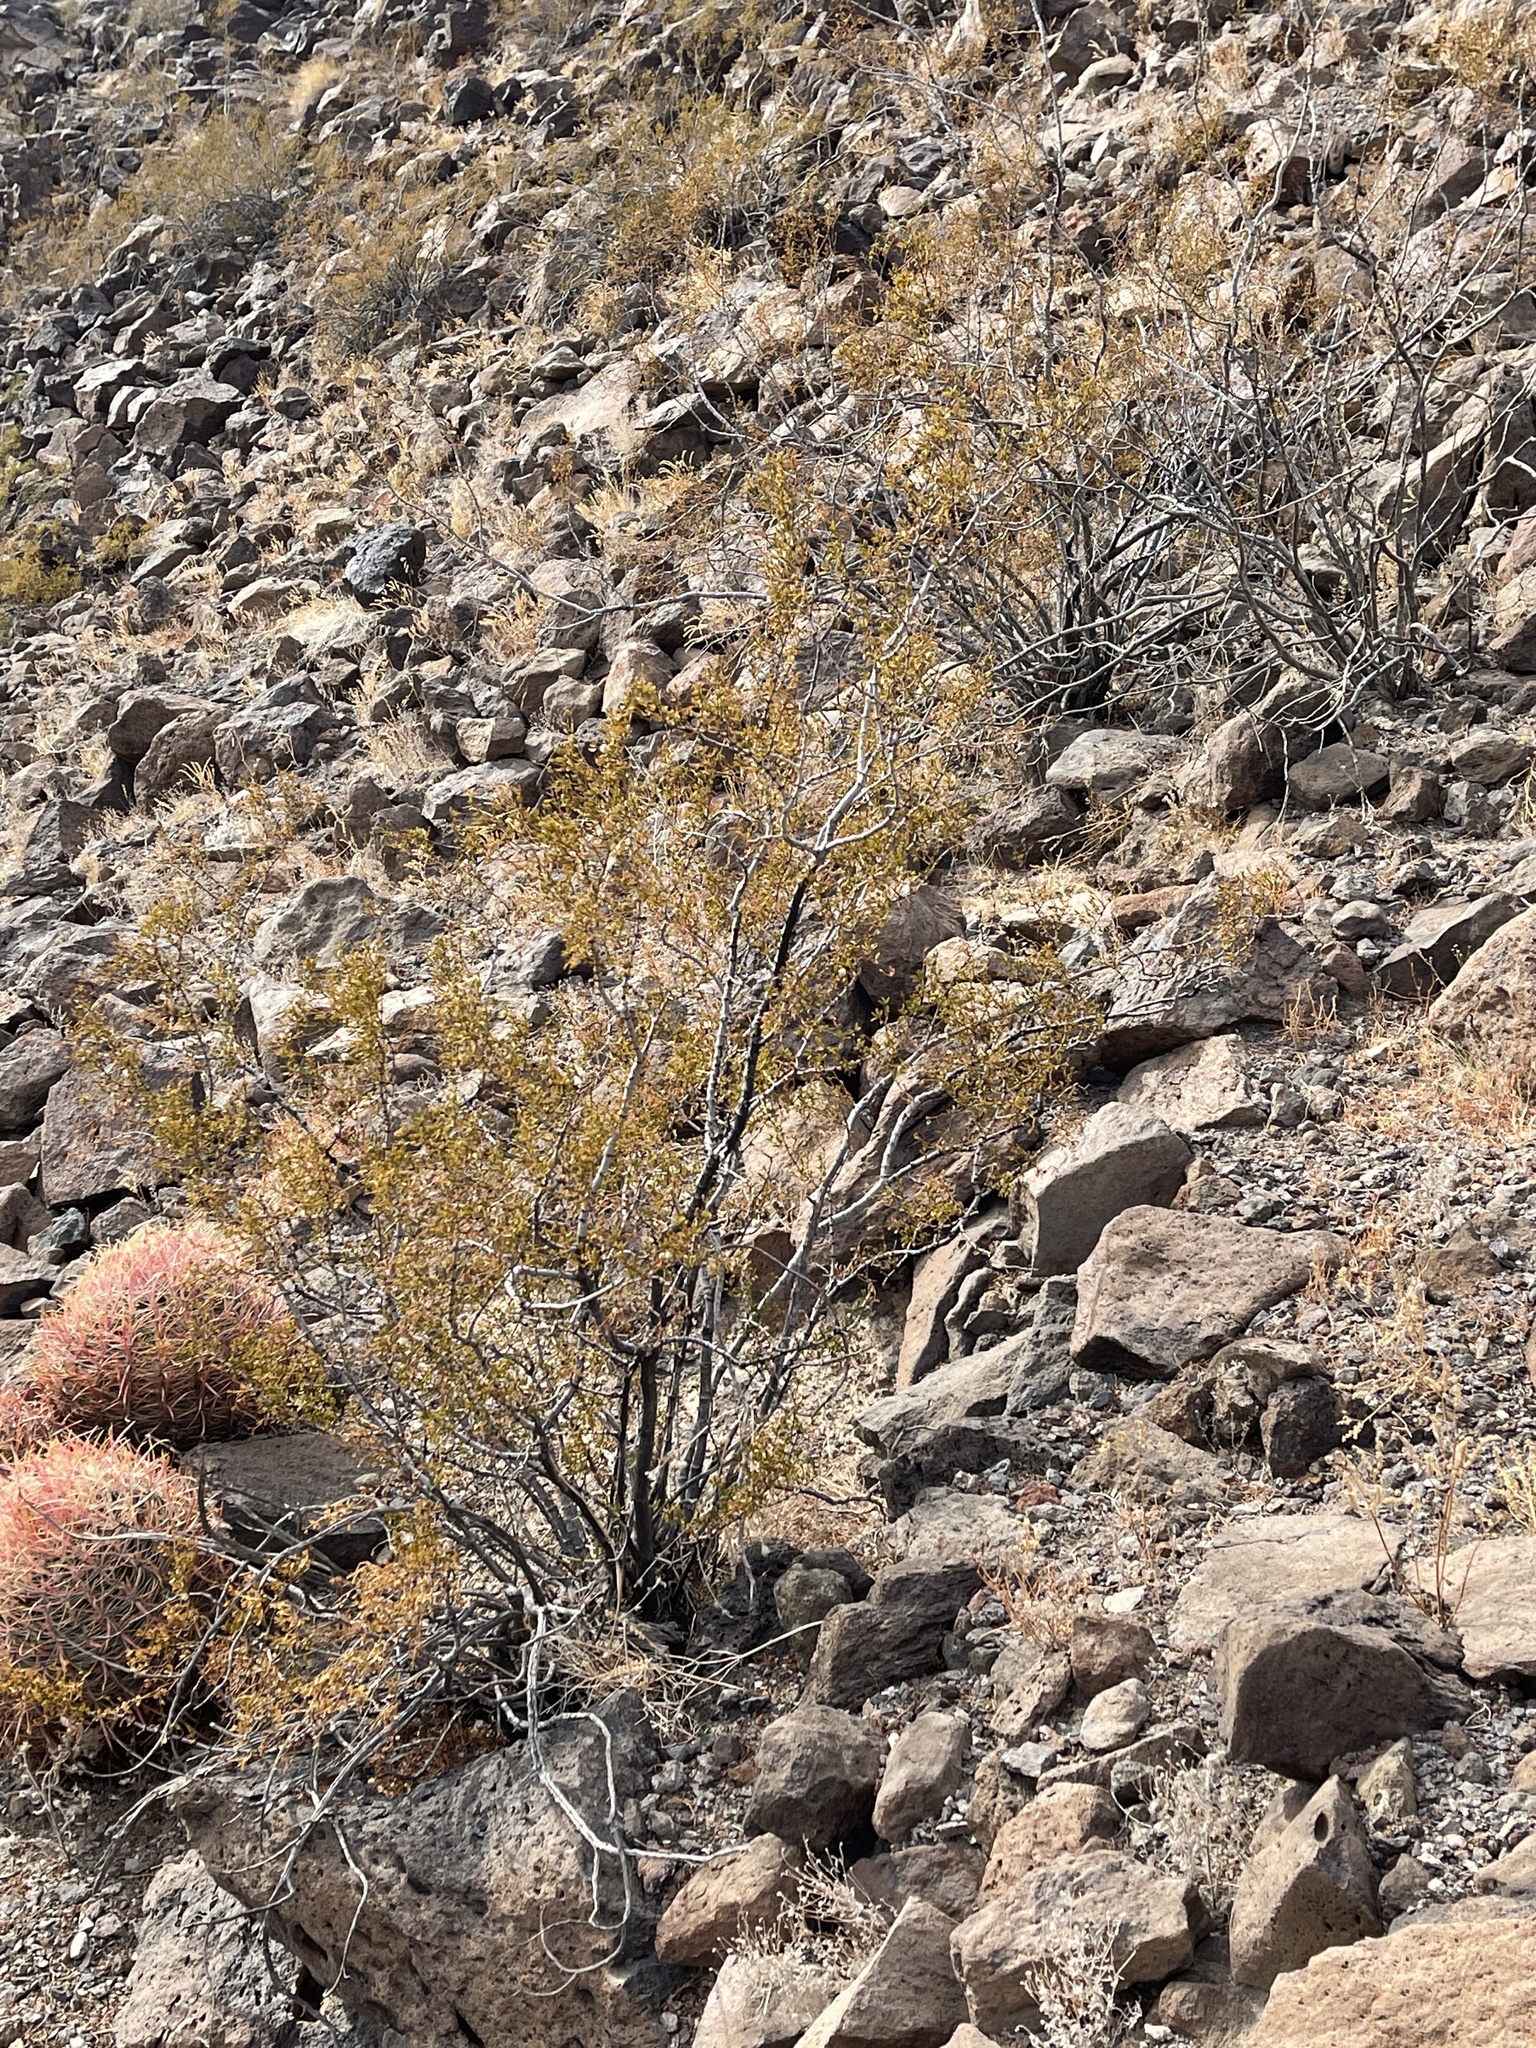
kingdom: Plantae
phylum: Tracheophyta
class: Magnoliopsida
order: Zygophyllales
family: Zygophyllaceae
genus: Larrea
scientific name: Larrea tridentata
